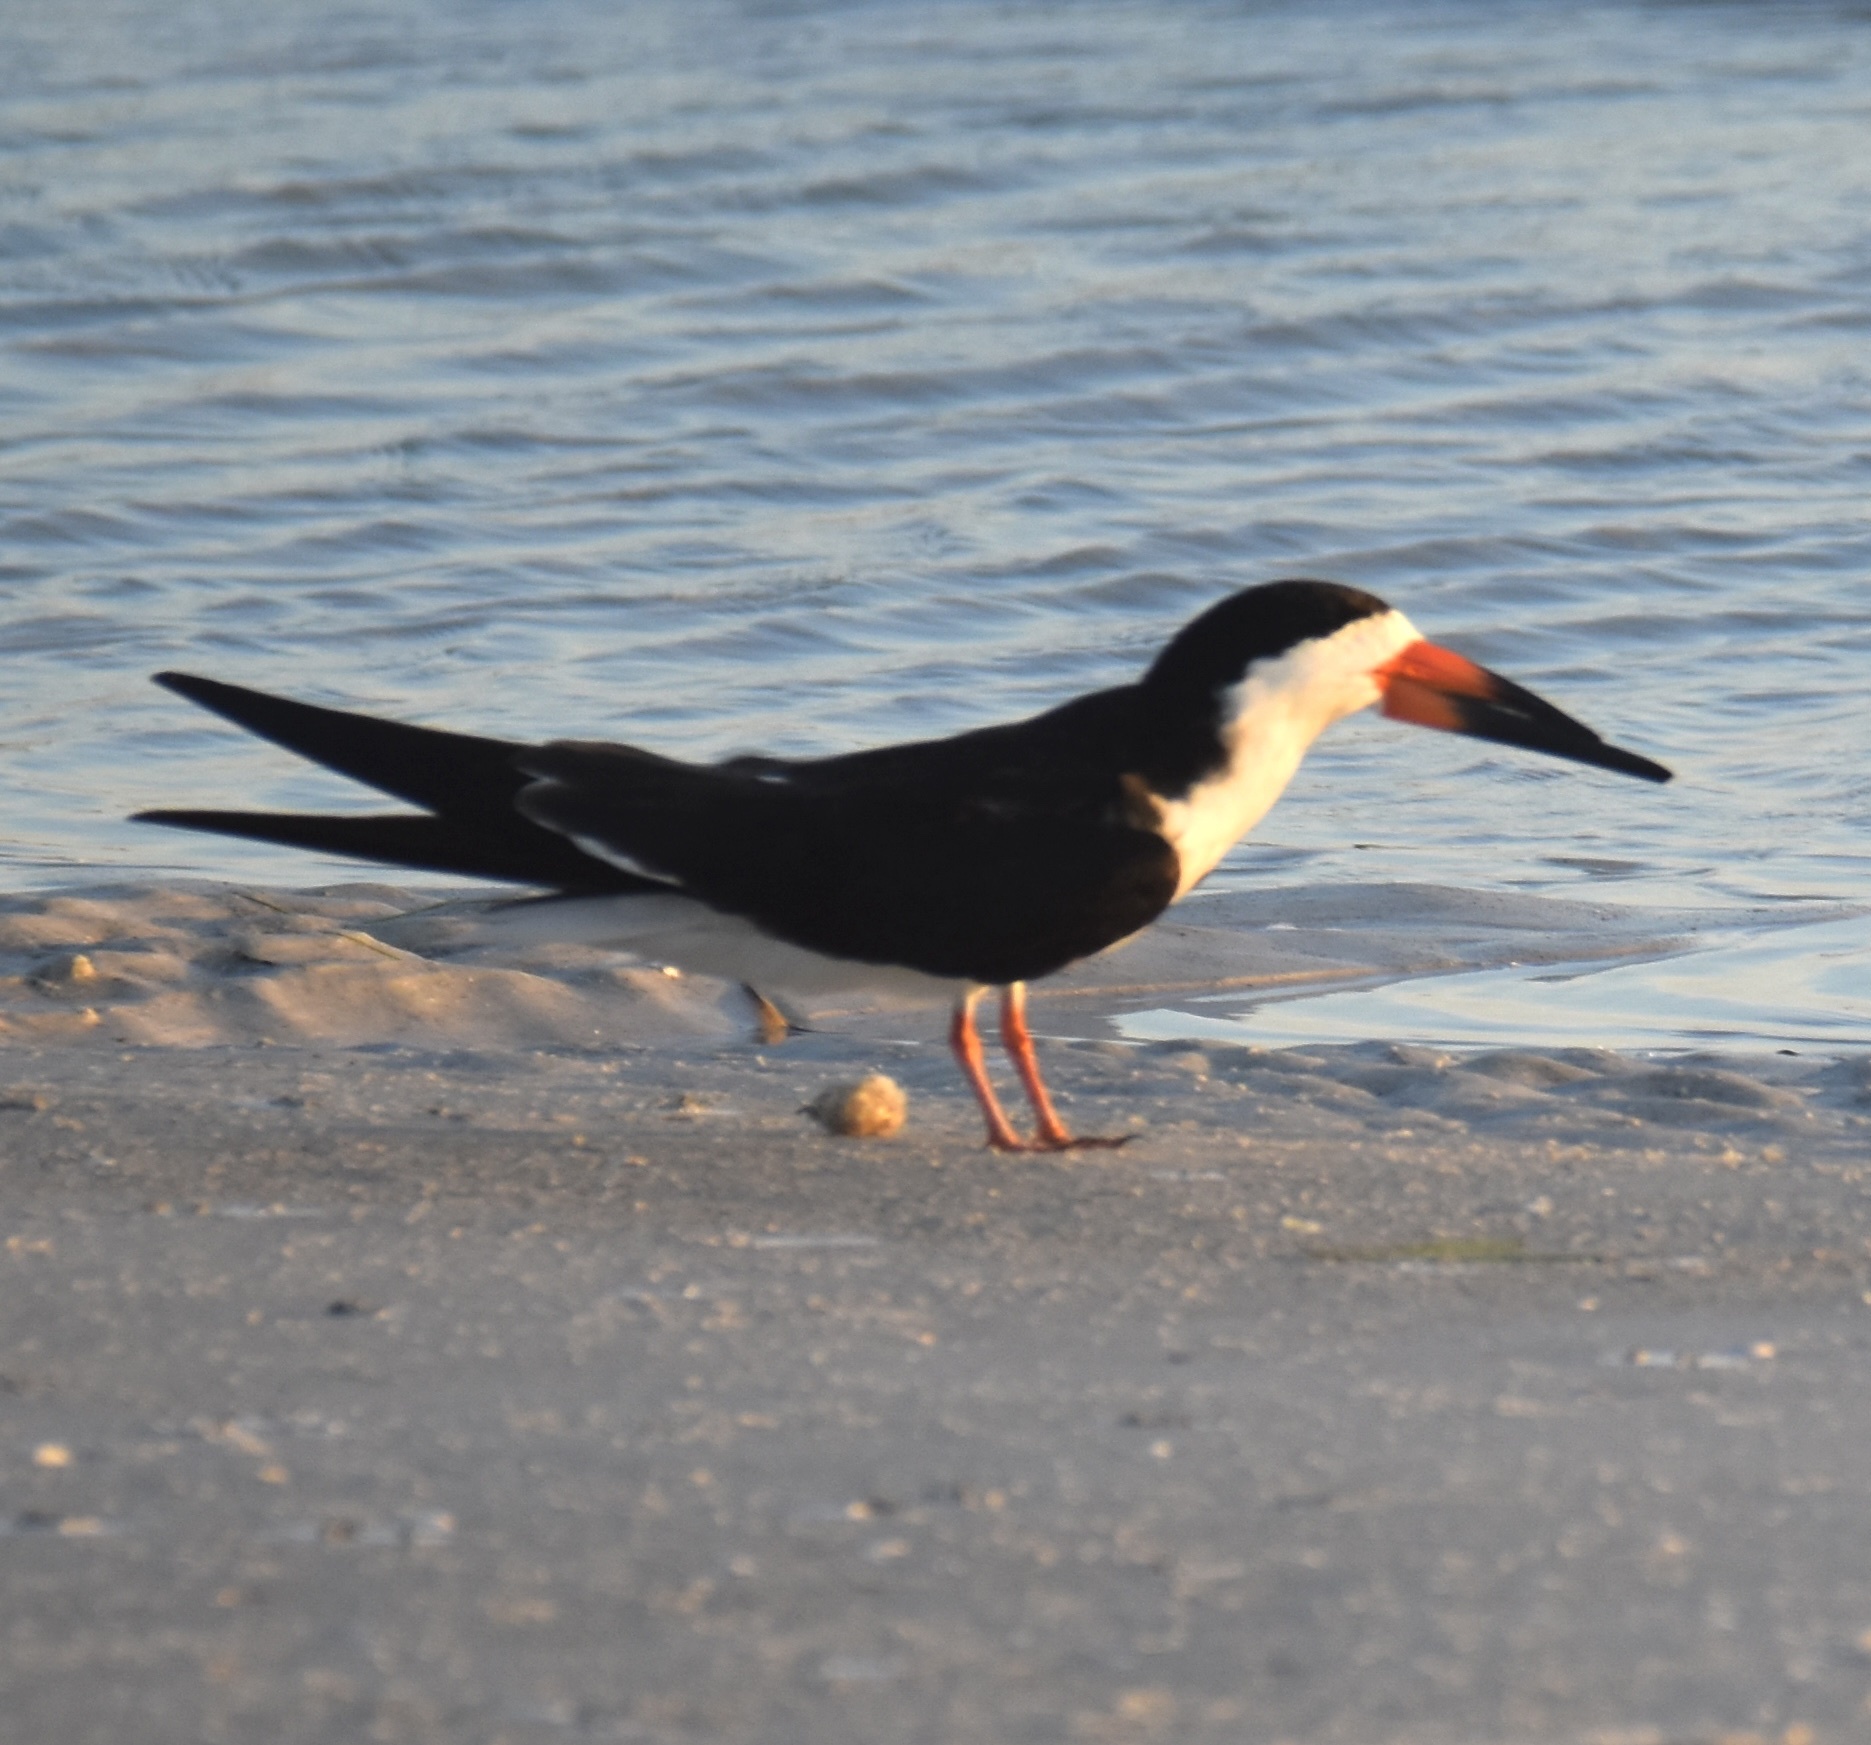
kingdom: Animalia
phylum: Chordata
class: Aves
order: Charadriiformes
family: Laridae
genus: Rynchops
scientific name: Rynchops niger
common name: Black skimmer
